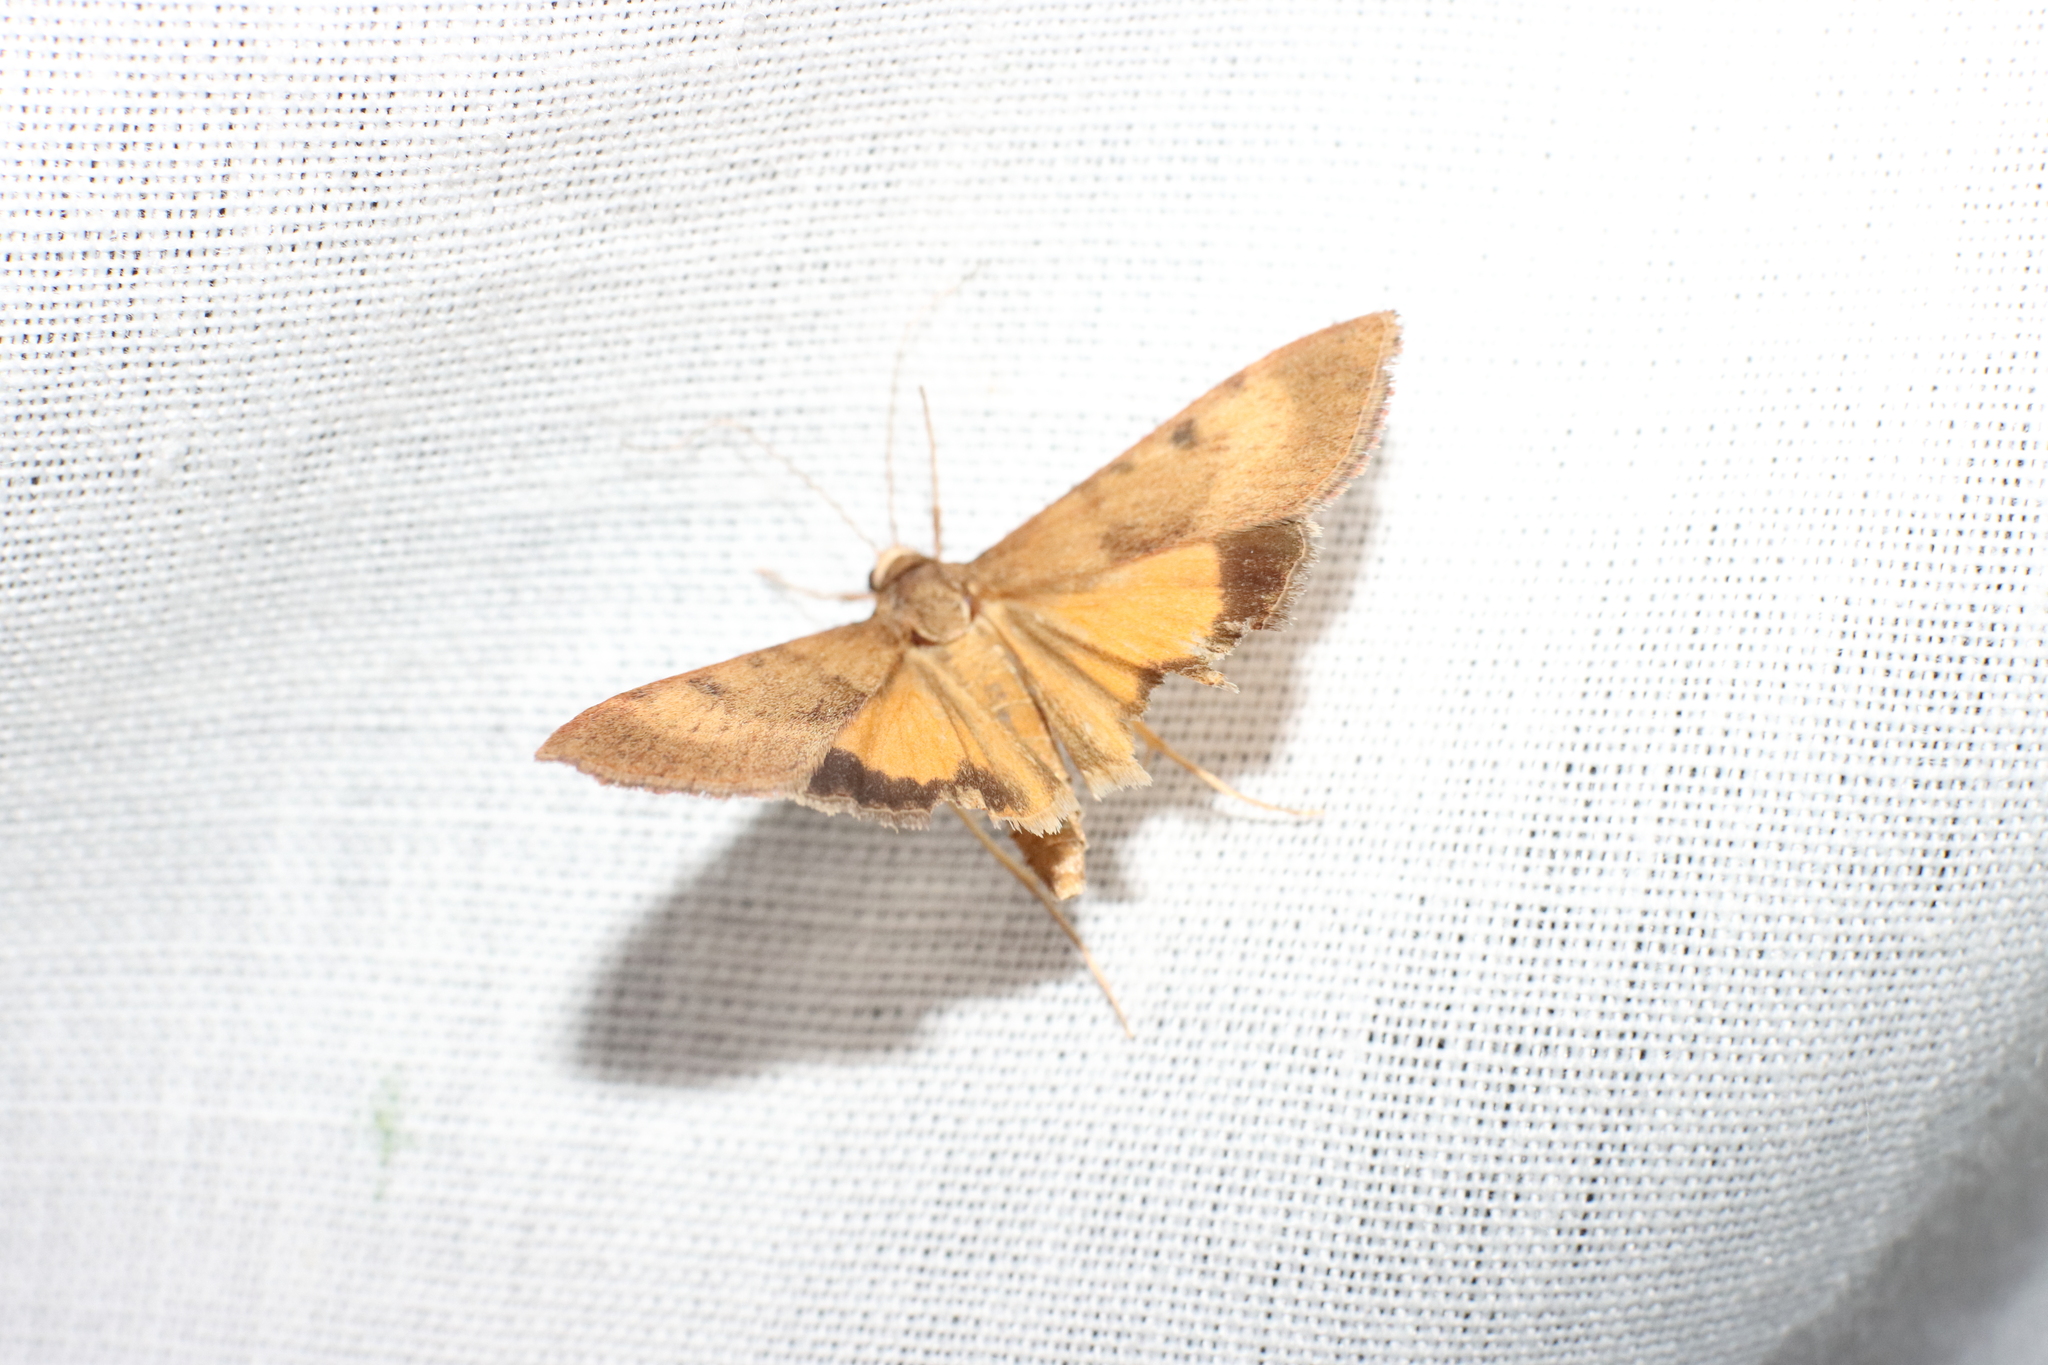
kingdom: Animalia
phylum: Arthropoda
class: Insecta
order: Lepidoptera
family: Crambidae
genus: Uresiphita
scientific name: Uresiphita
